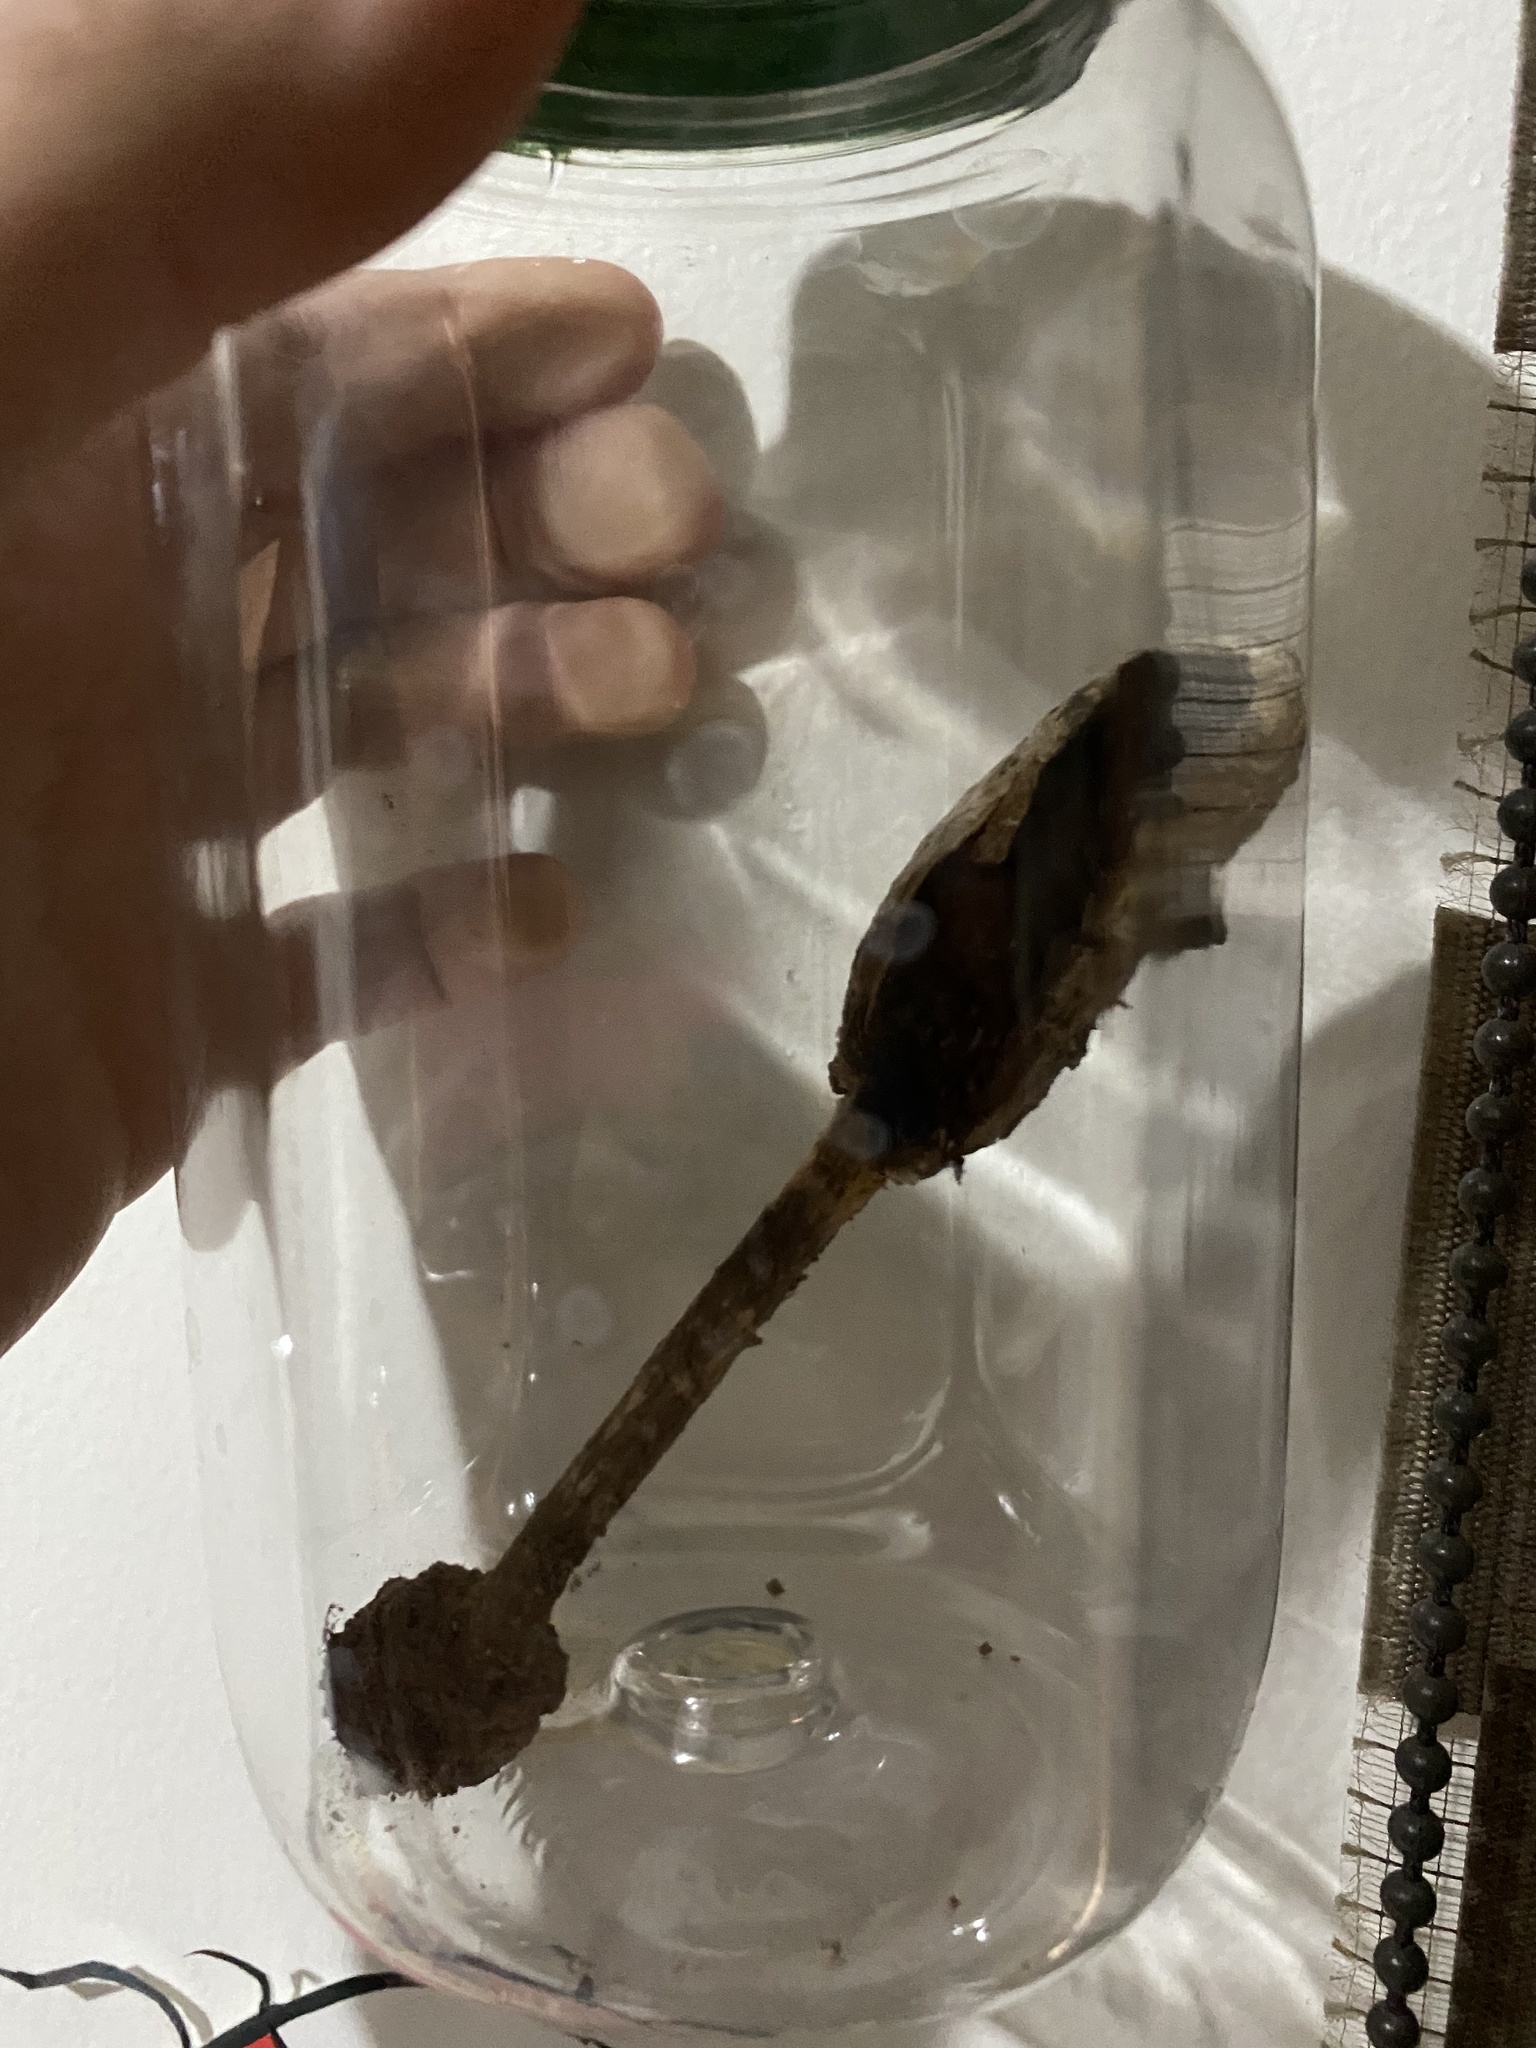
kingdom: Fungi
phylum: Basidiomycota
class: Agaricomycetes
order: Agaricales
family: Agaricaceae
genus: Podaxis
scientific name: Podaxis pistillaris
